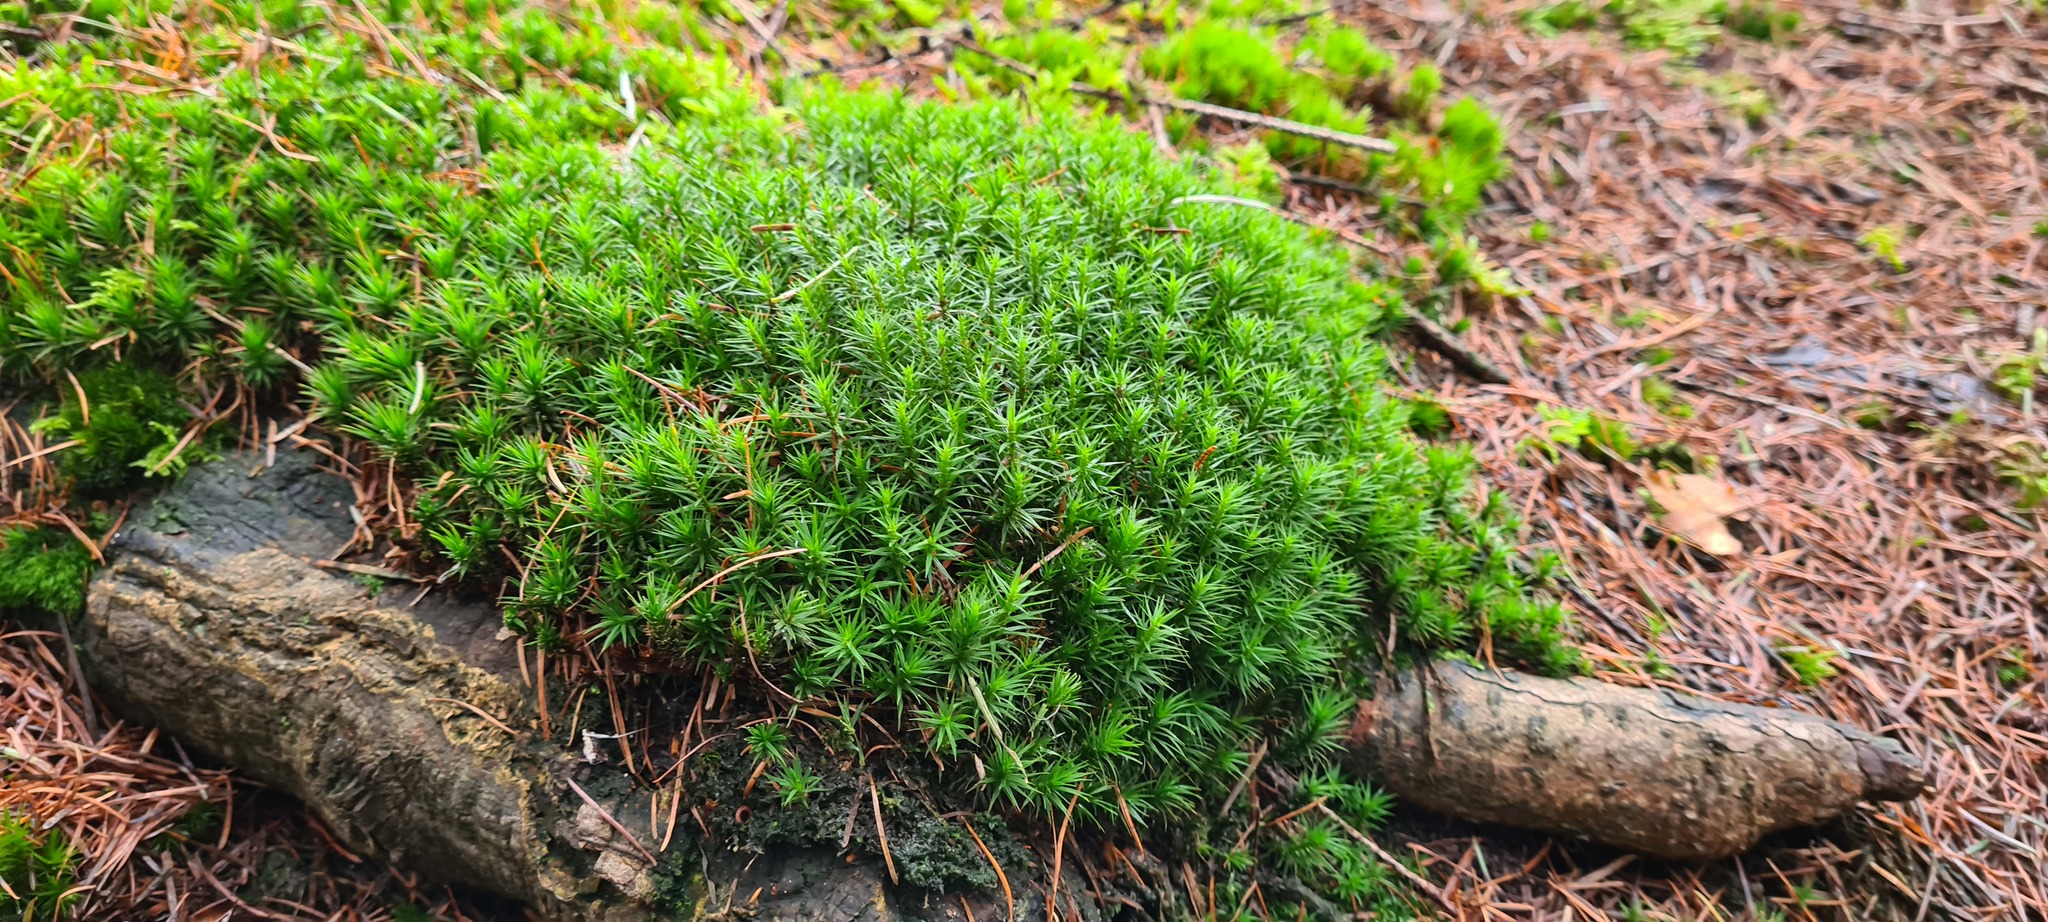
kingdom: Plantae
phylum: Bryophyta
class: Polytrichopsida
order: Polytrichales
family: Polytrichaceae
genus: Polytrichum
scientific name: Polytrichum formosum
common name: Bank haircap moss
